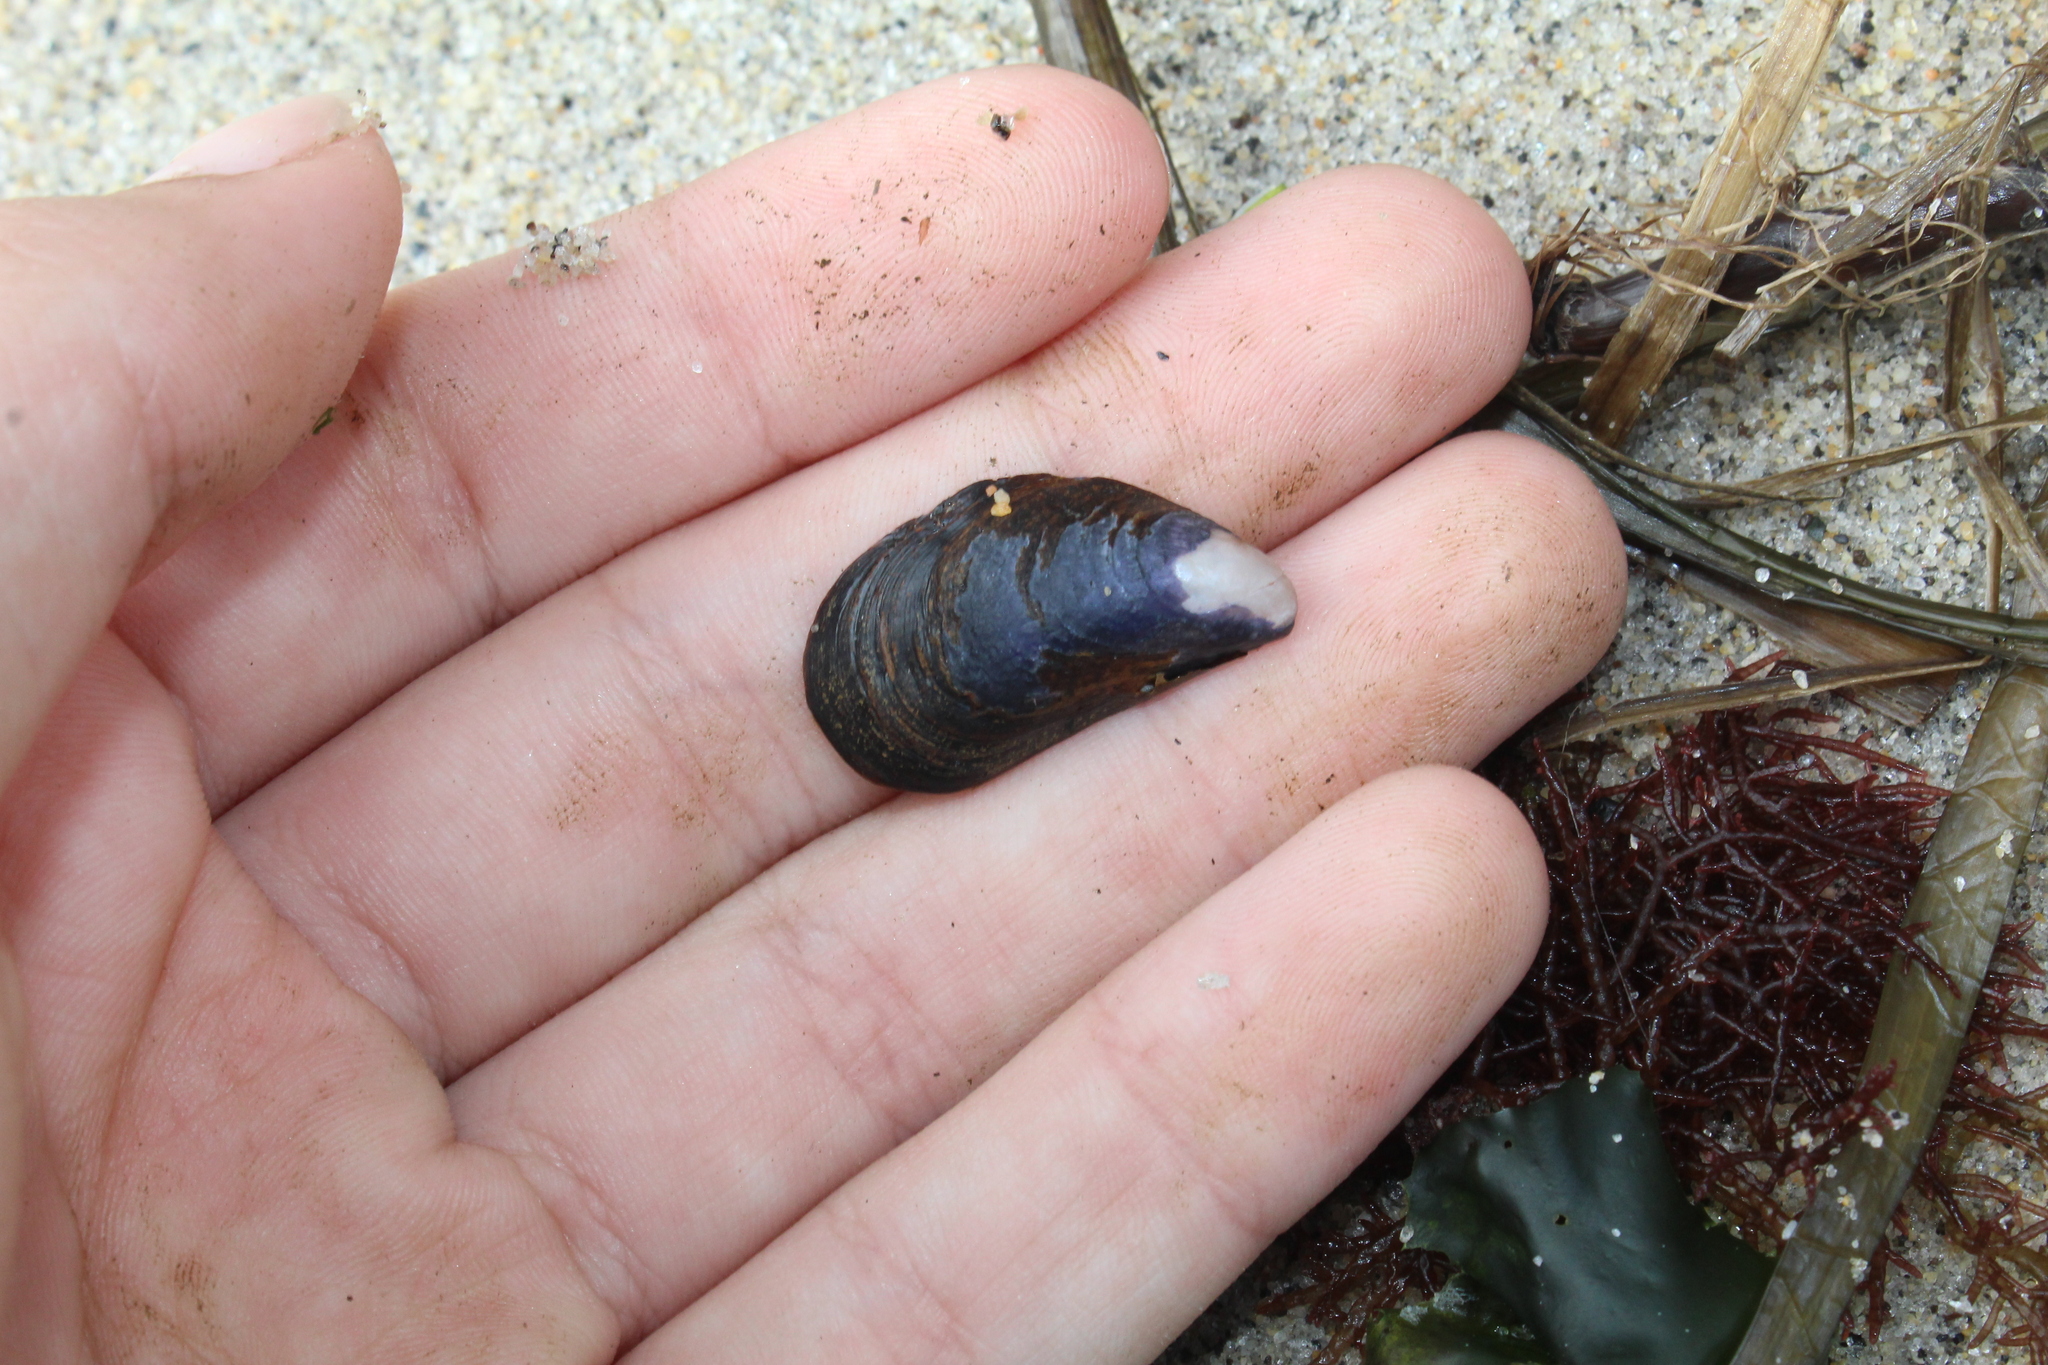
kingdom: Animalia
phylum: Mollusca
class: Bivalvia
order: Mytilida
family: Mytilidae
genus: Mytilus
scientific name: Mytilus edulis
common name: Blue mussel
